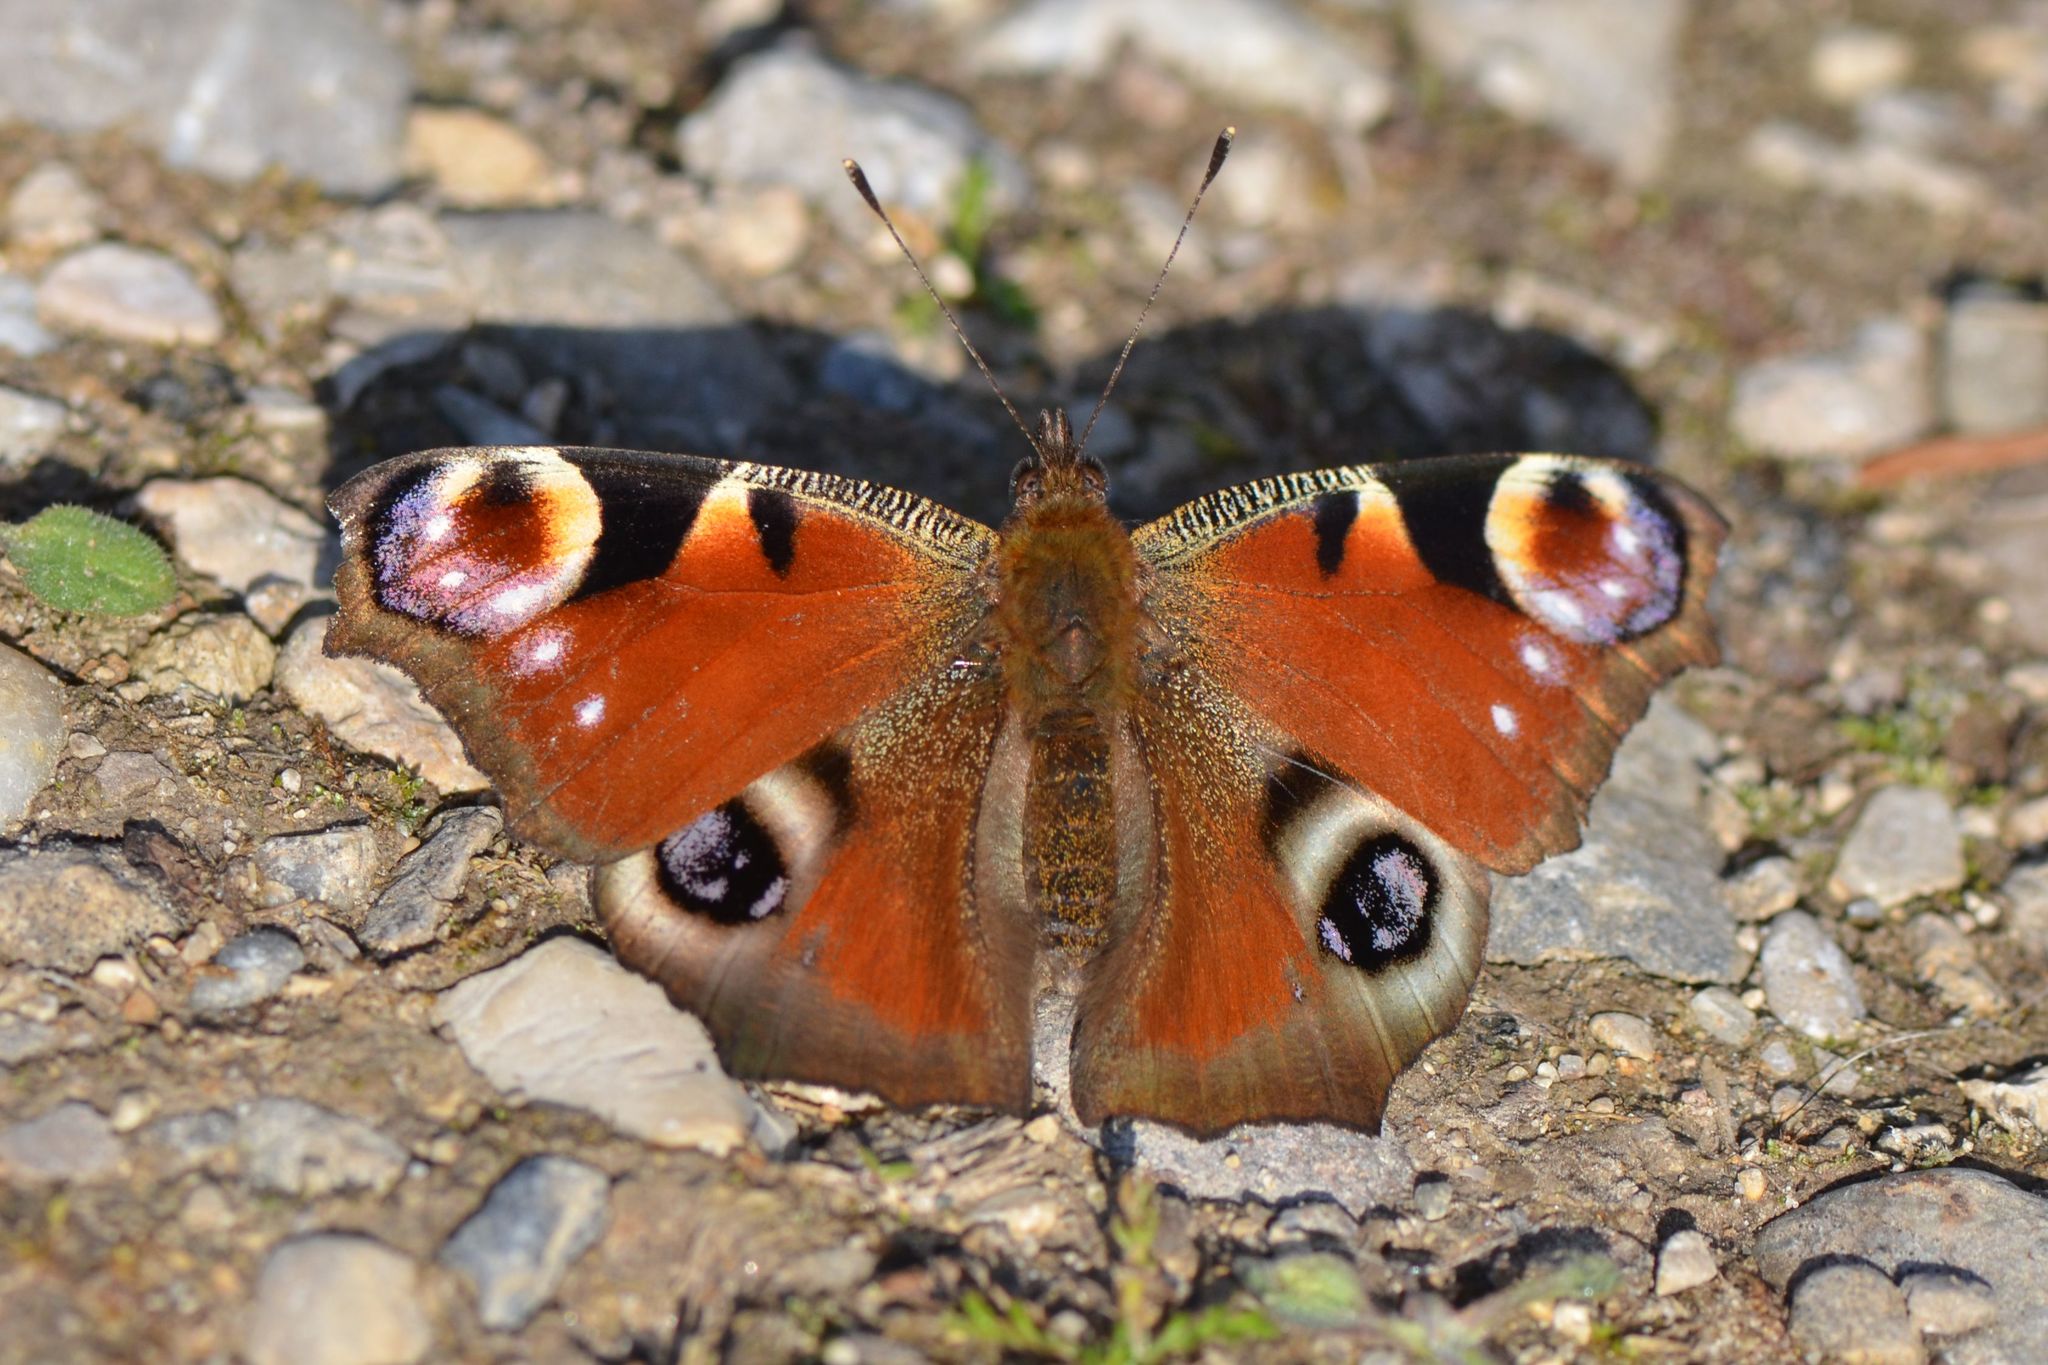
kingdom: Animalia
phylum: Arthropoda
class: Insecta
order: Lepidoptera
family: Nymphalidae
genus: Aglais
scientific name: Aglais io
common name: Peacock
